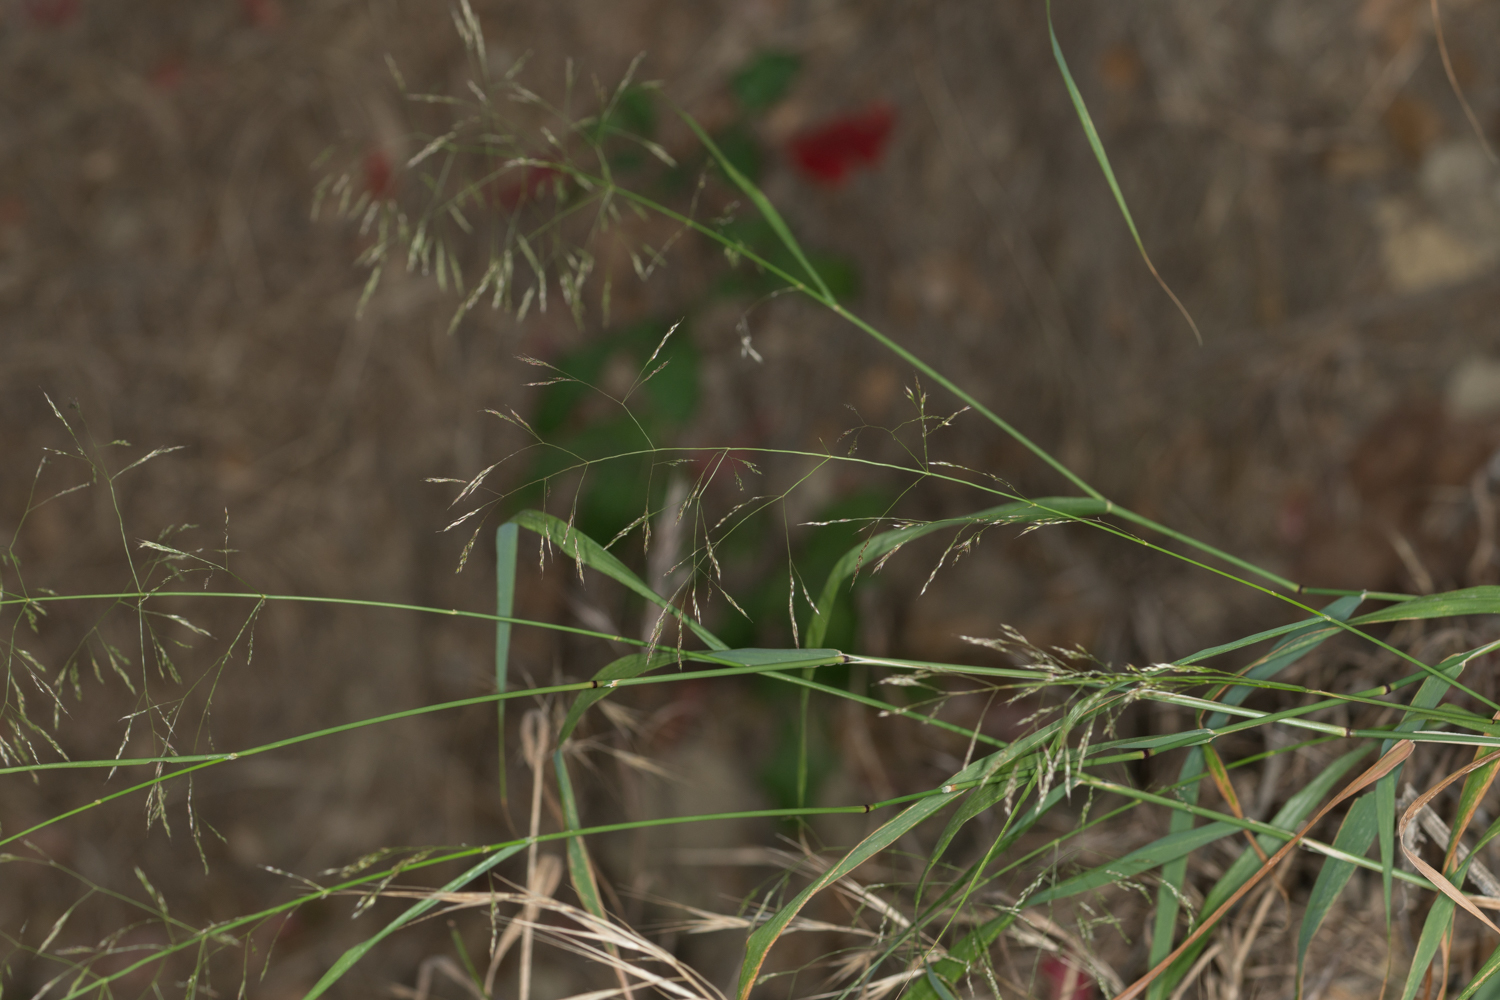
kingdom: Plantae
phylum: Tracheophyta
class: Liliopsida
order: Poales
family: Poaceae
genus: Oloptum
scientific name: Oloptum miliaceum
